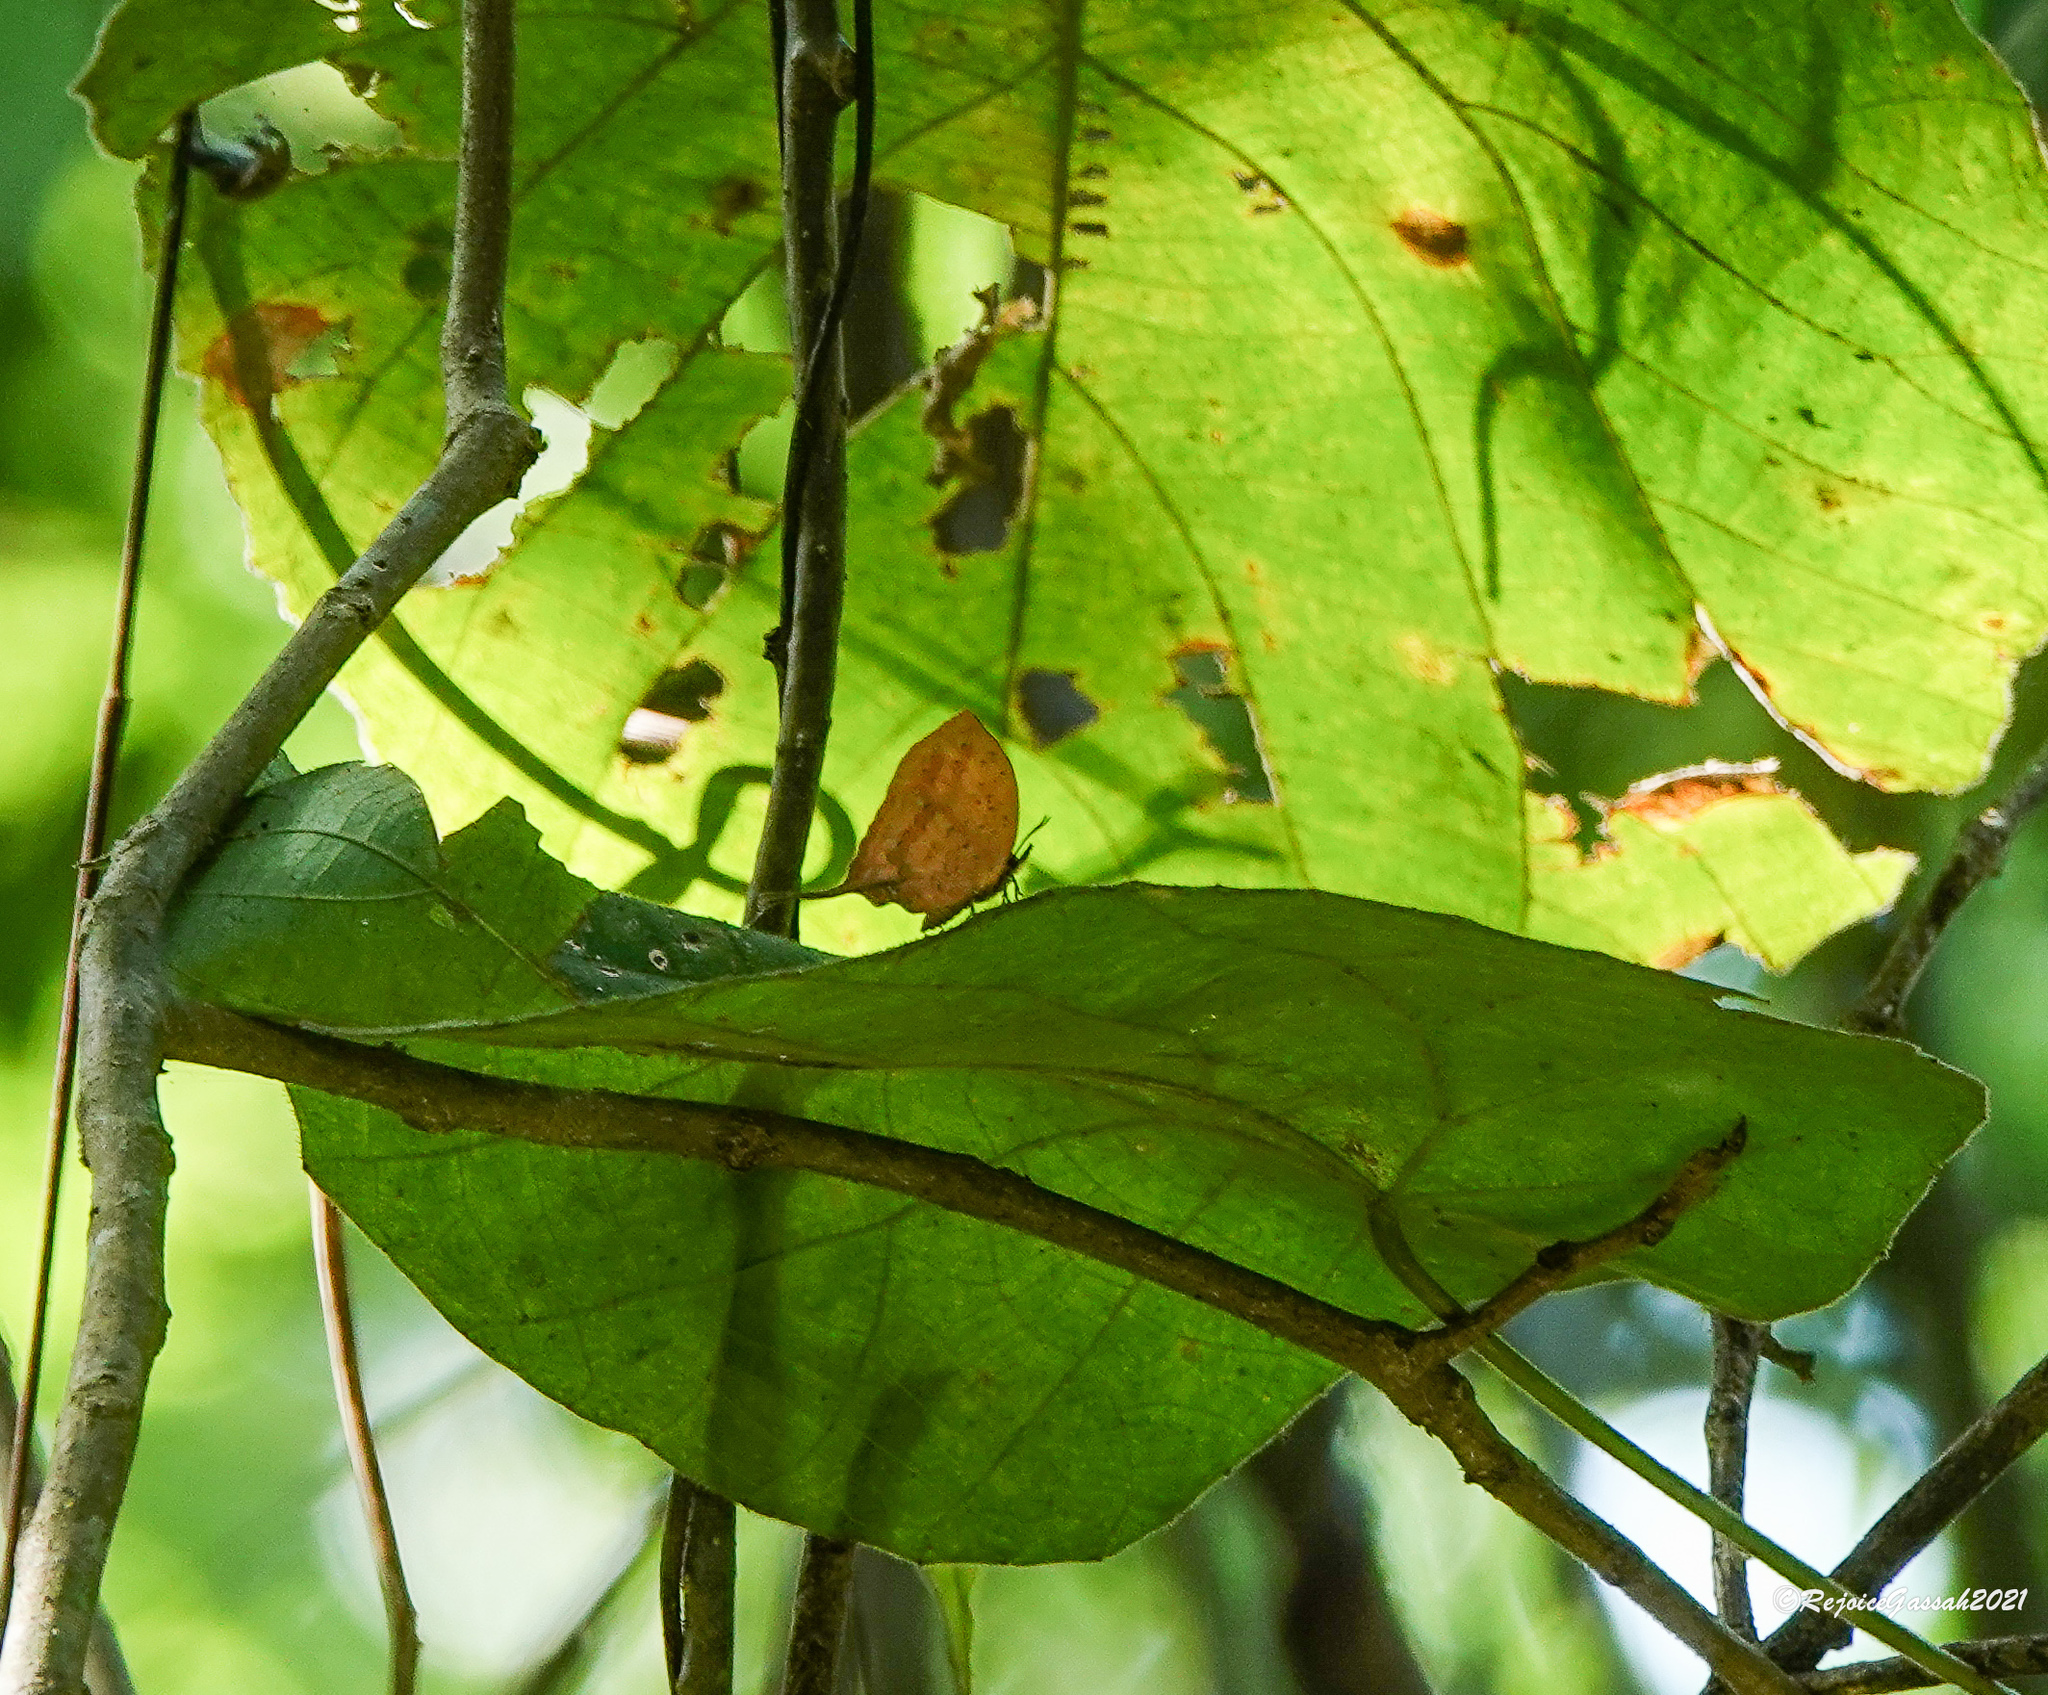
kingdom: Animalia
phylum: Arthropoda
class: Insecta
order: Lepidoptera
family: Lycaenidae
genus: Yasoda
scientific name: Yasoda tripunctata
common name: Branded yamfly
